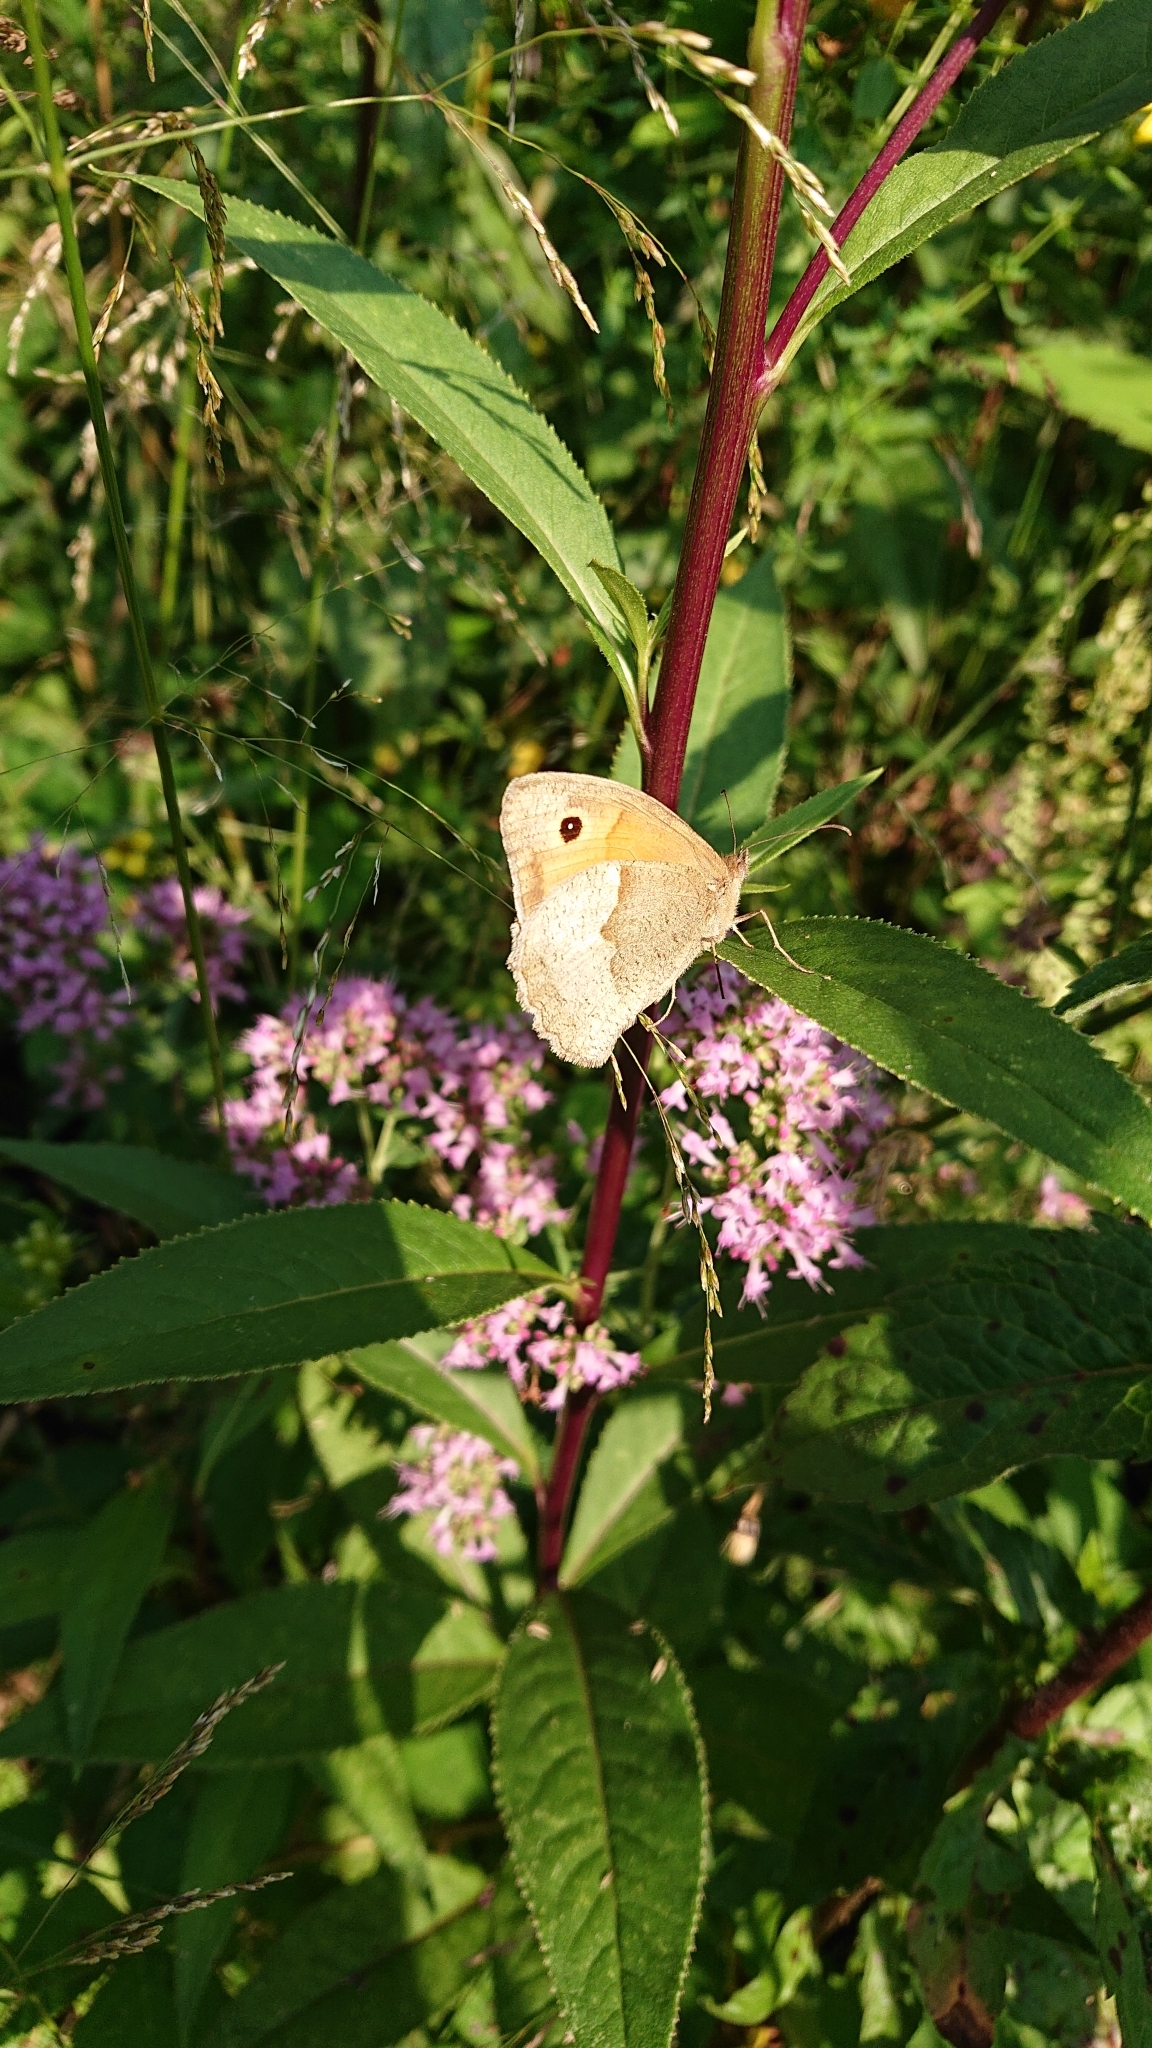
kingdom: Animalia
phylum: Arthropoda
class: Insecta
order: Lepidoptera
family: Nymphalidae
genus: Maniola
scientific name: Maniola jurtina
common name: Meadow brown
